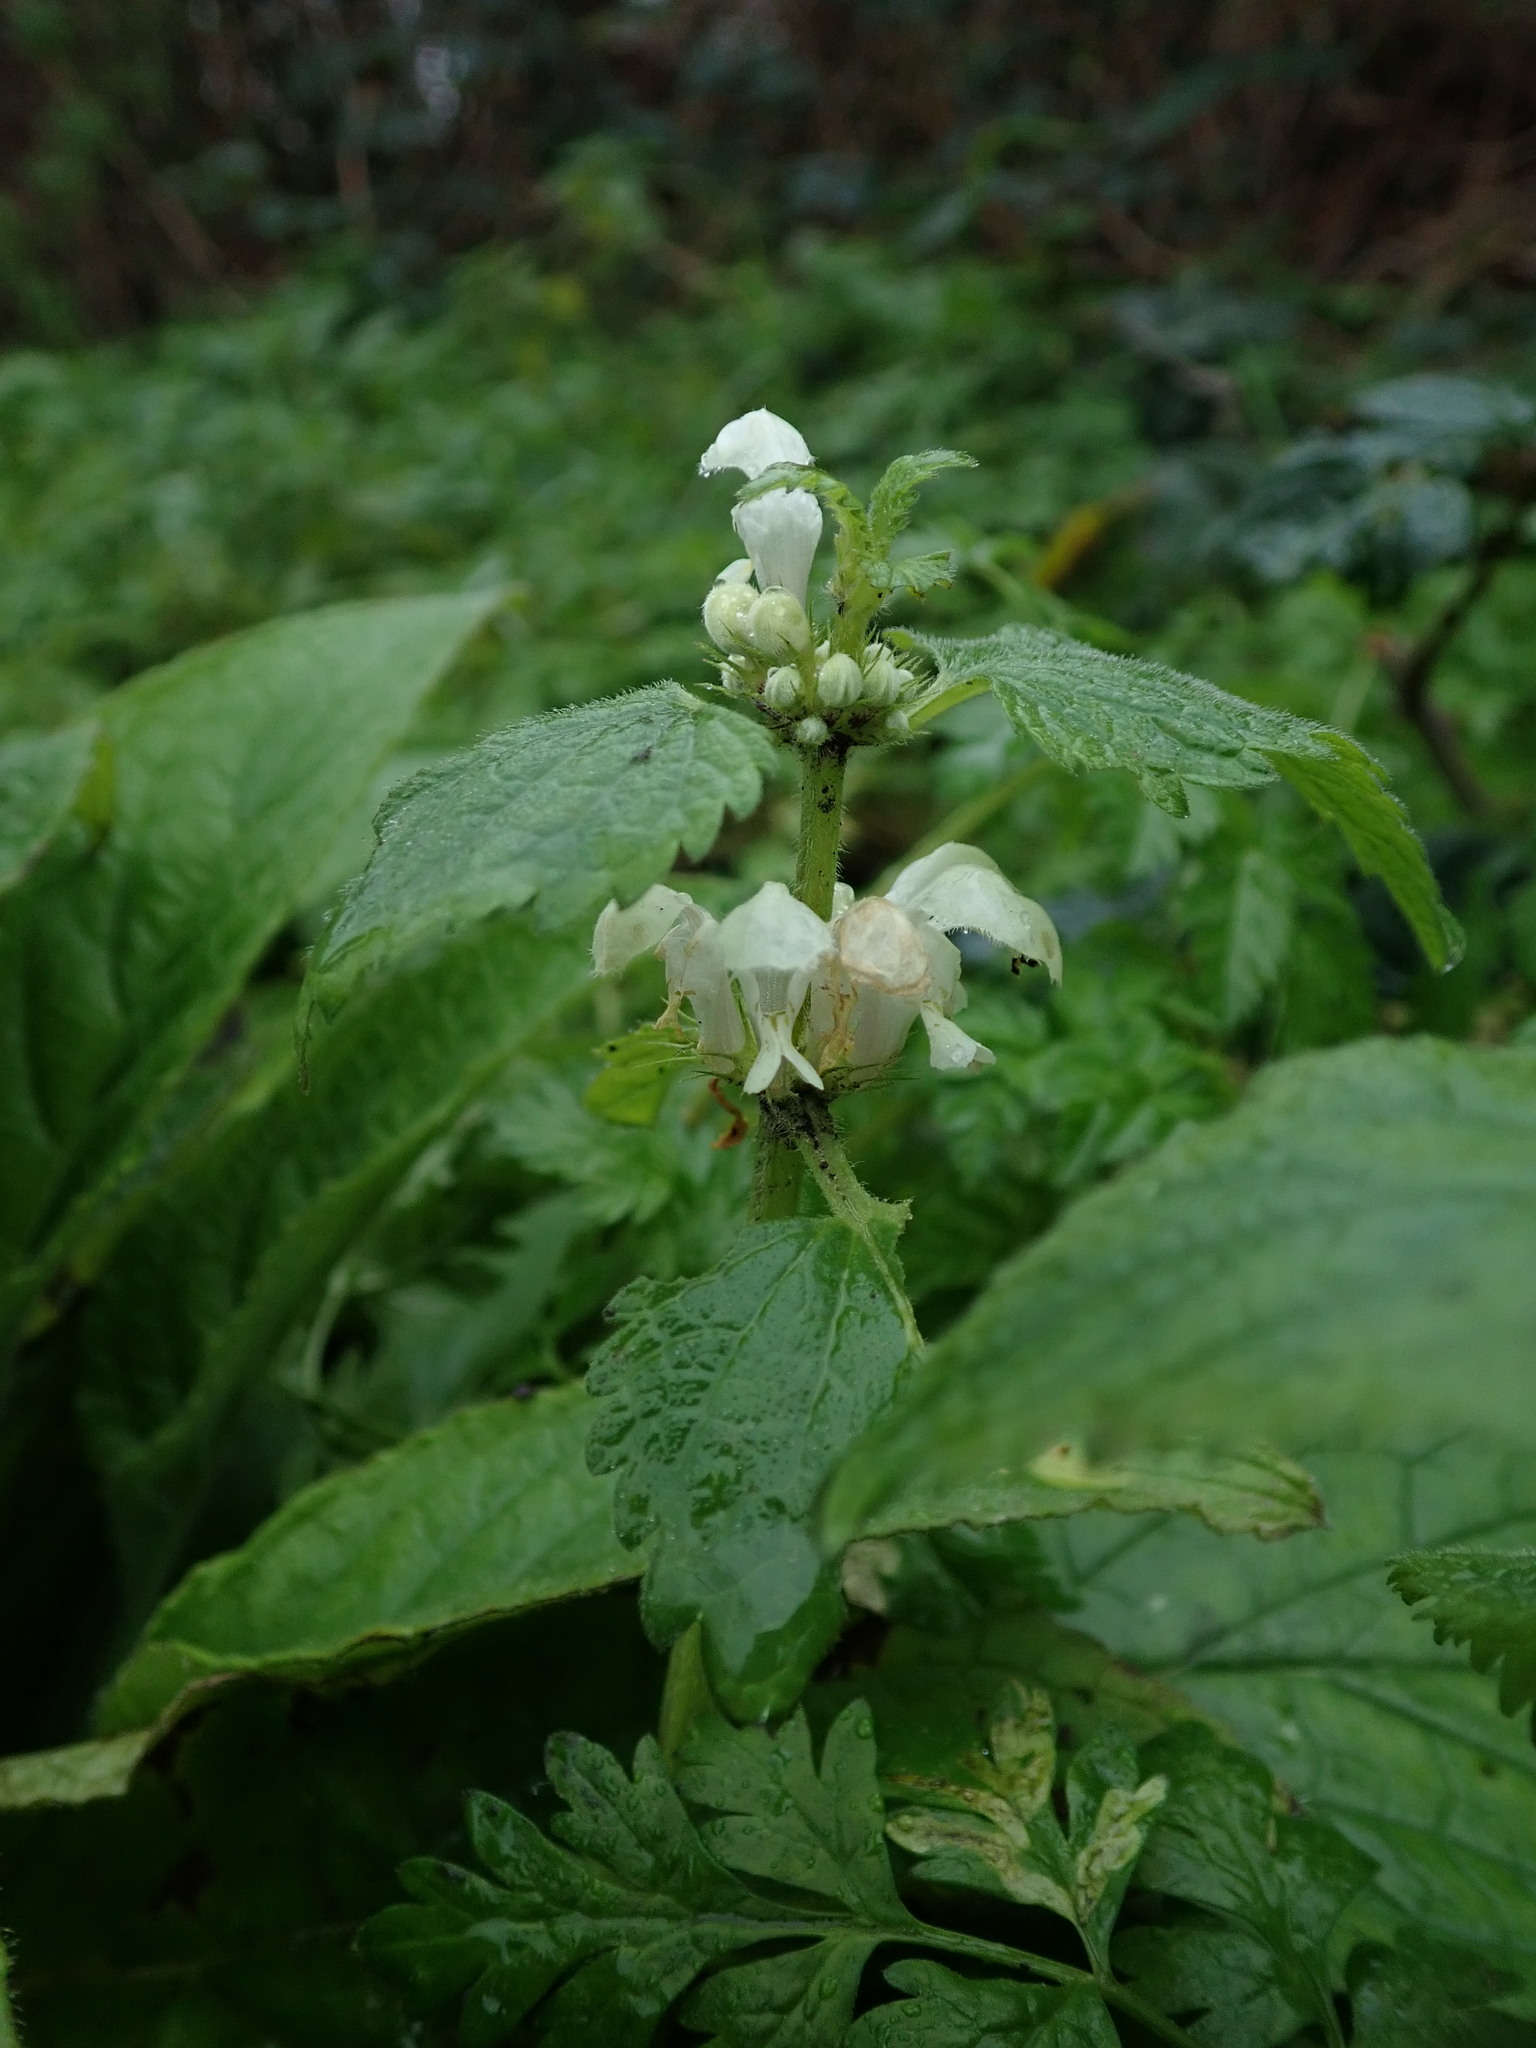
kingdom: Plantae
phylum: Tracheophyta
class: Magnoliopsida
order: Lamiales
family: Lamiaceae
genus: Lamium
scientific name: Lamium album
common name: White dead-nettle
